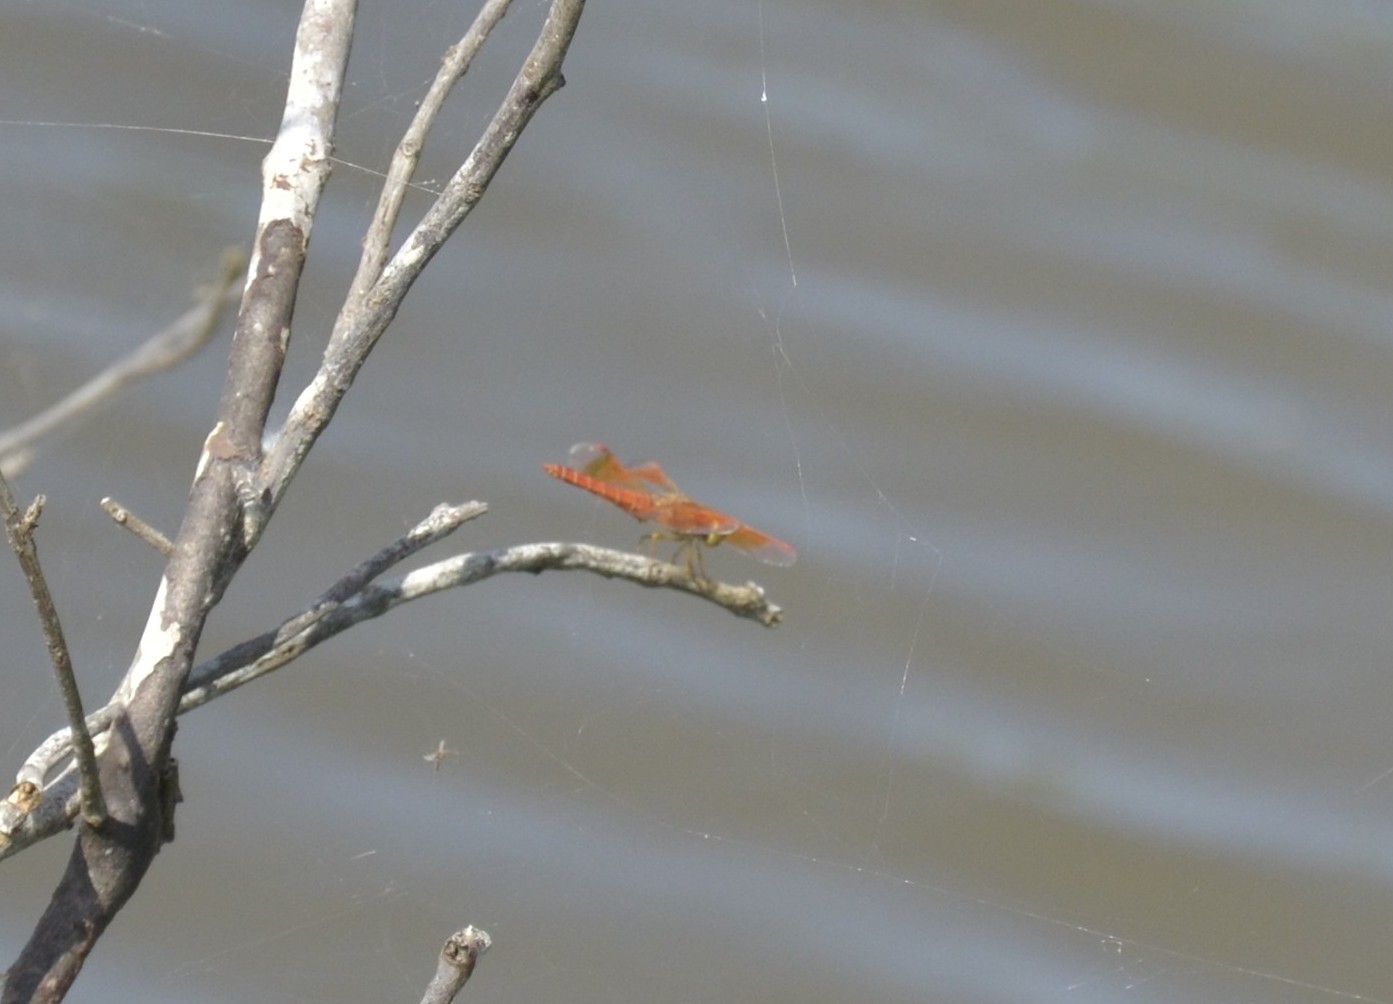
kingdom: Animalia
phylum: Arthropoda
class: Insecta
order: Odonata
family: Libellulidae
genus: Brachythemis
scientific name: Brachythemis contaminata
